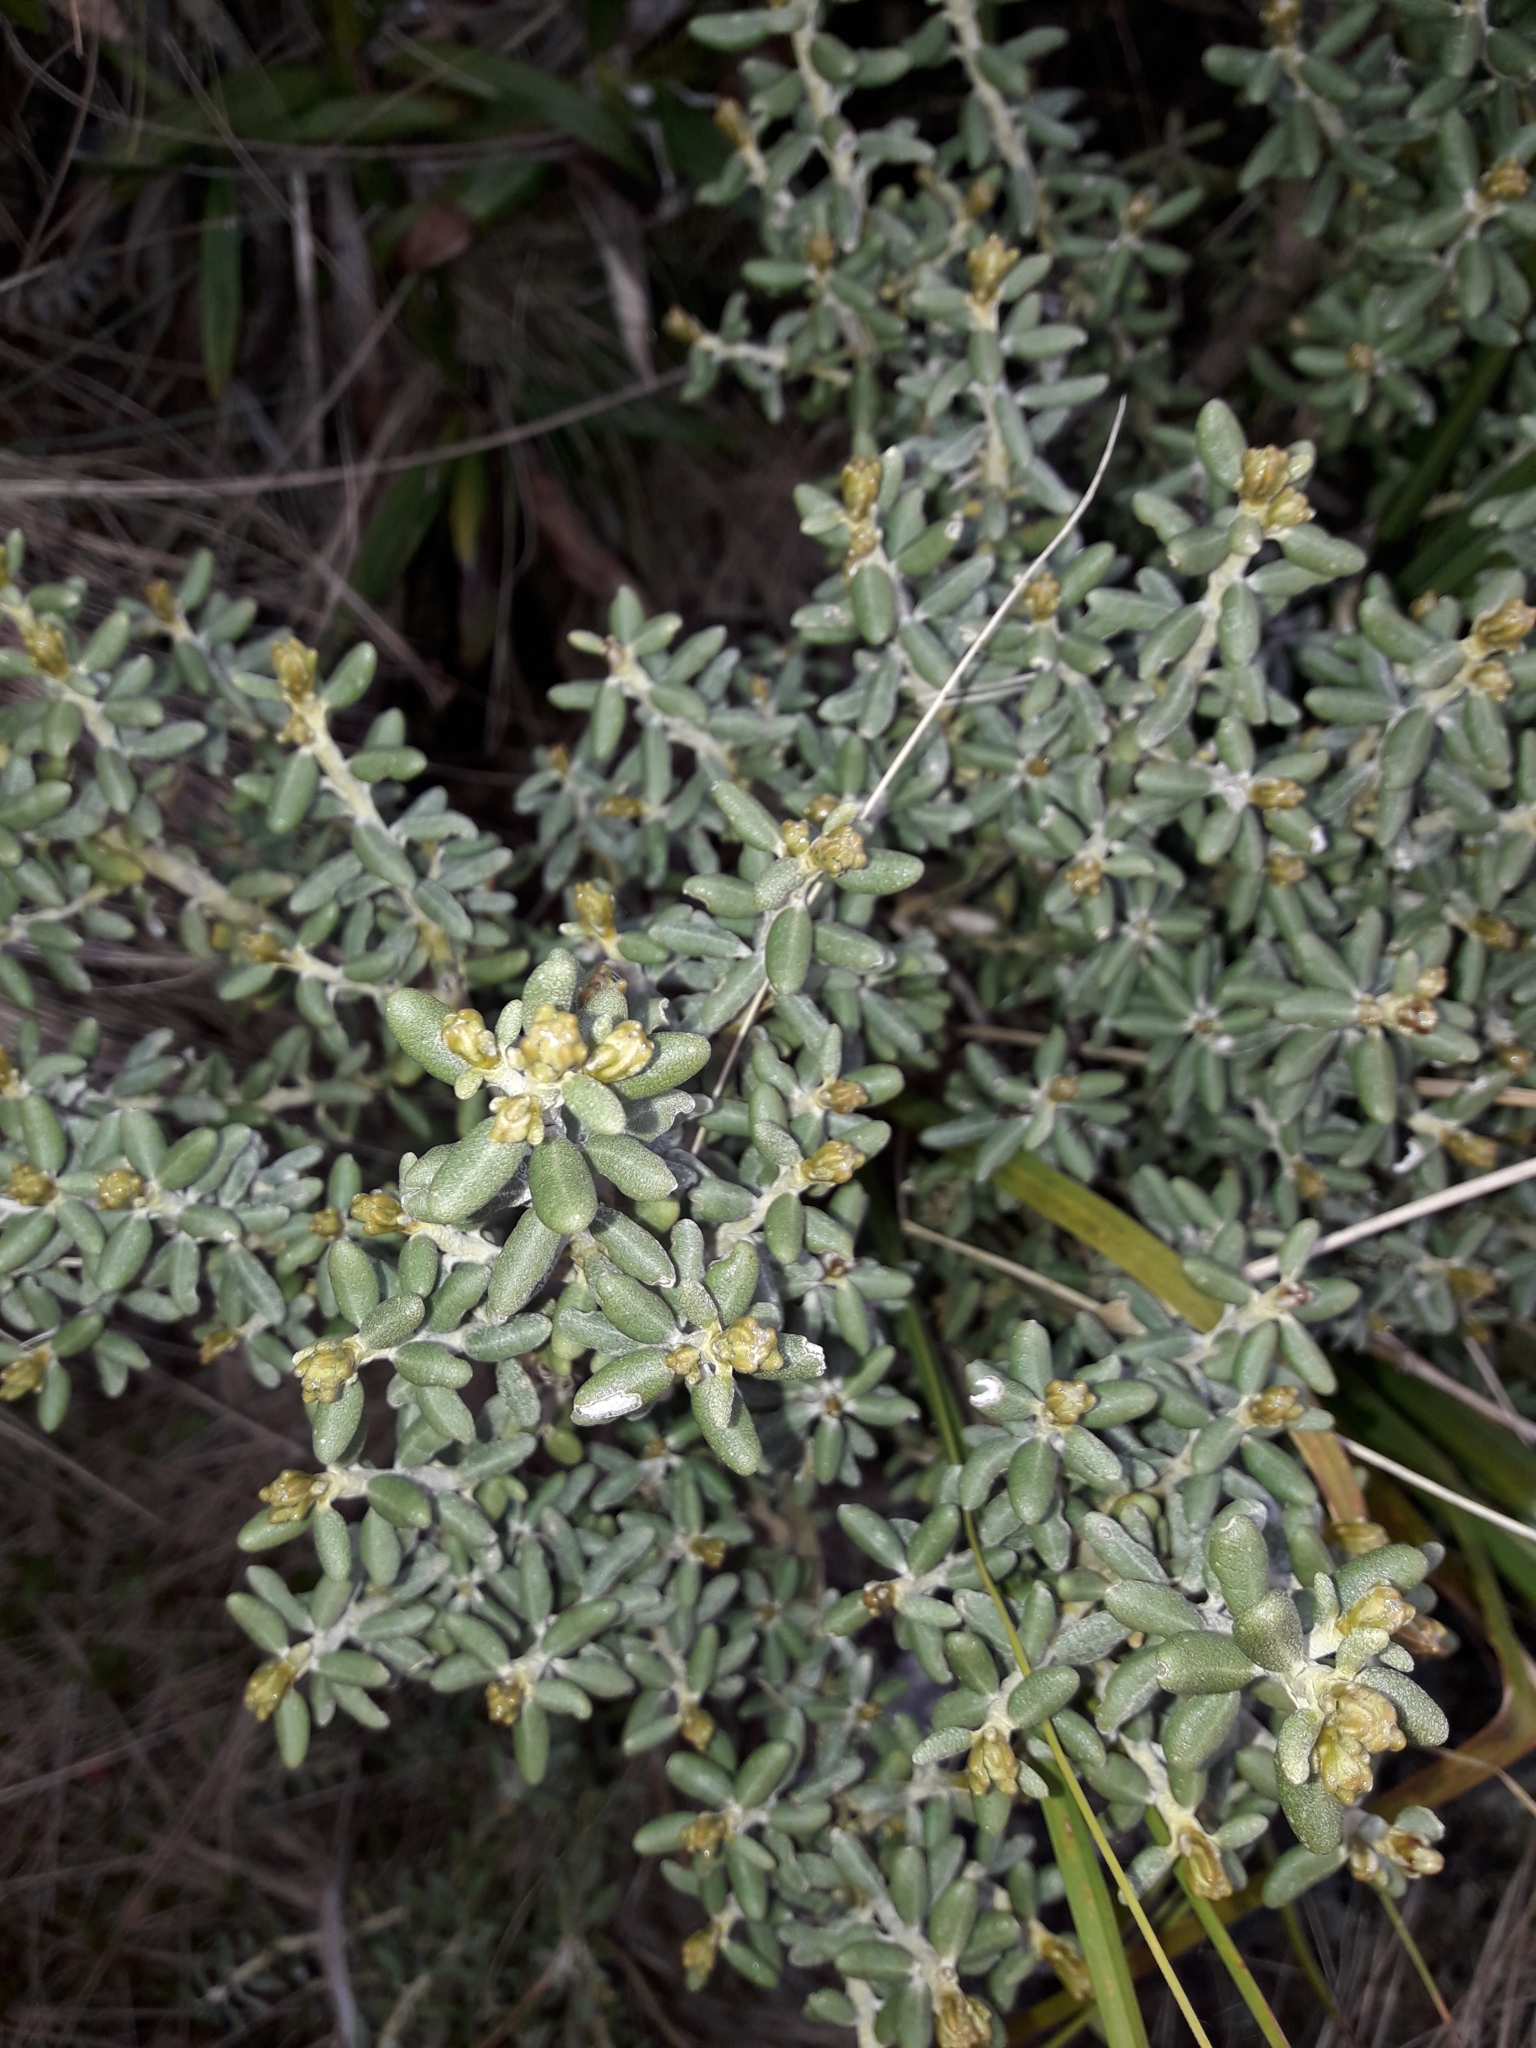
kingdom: Plantae
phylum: Tracheophyta
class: Magnoliopsida
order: Asterales
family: Asteraceae
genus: Olearia
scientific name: Olearia cymbifolia
